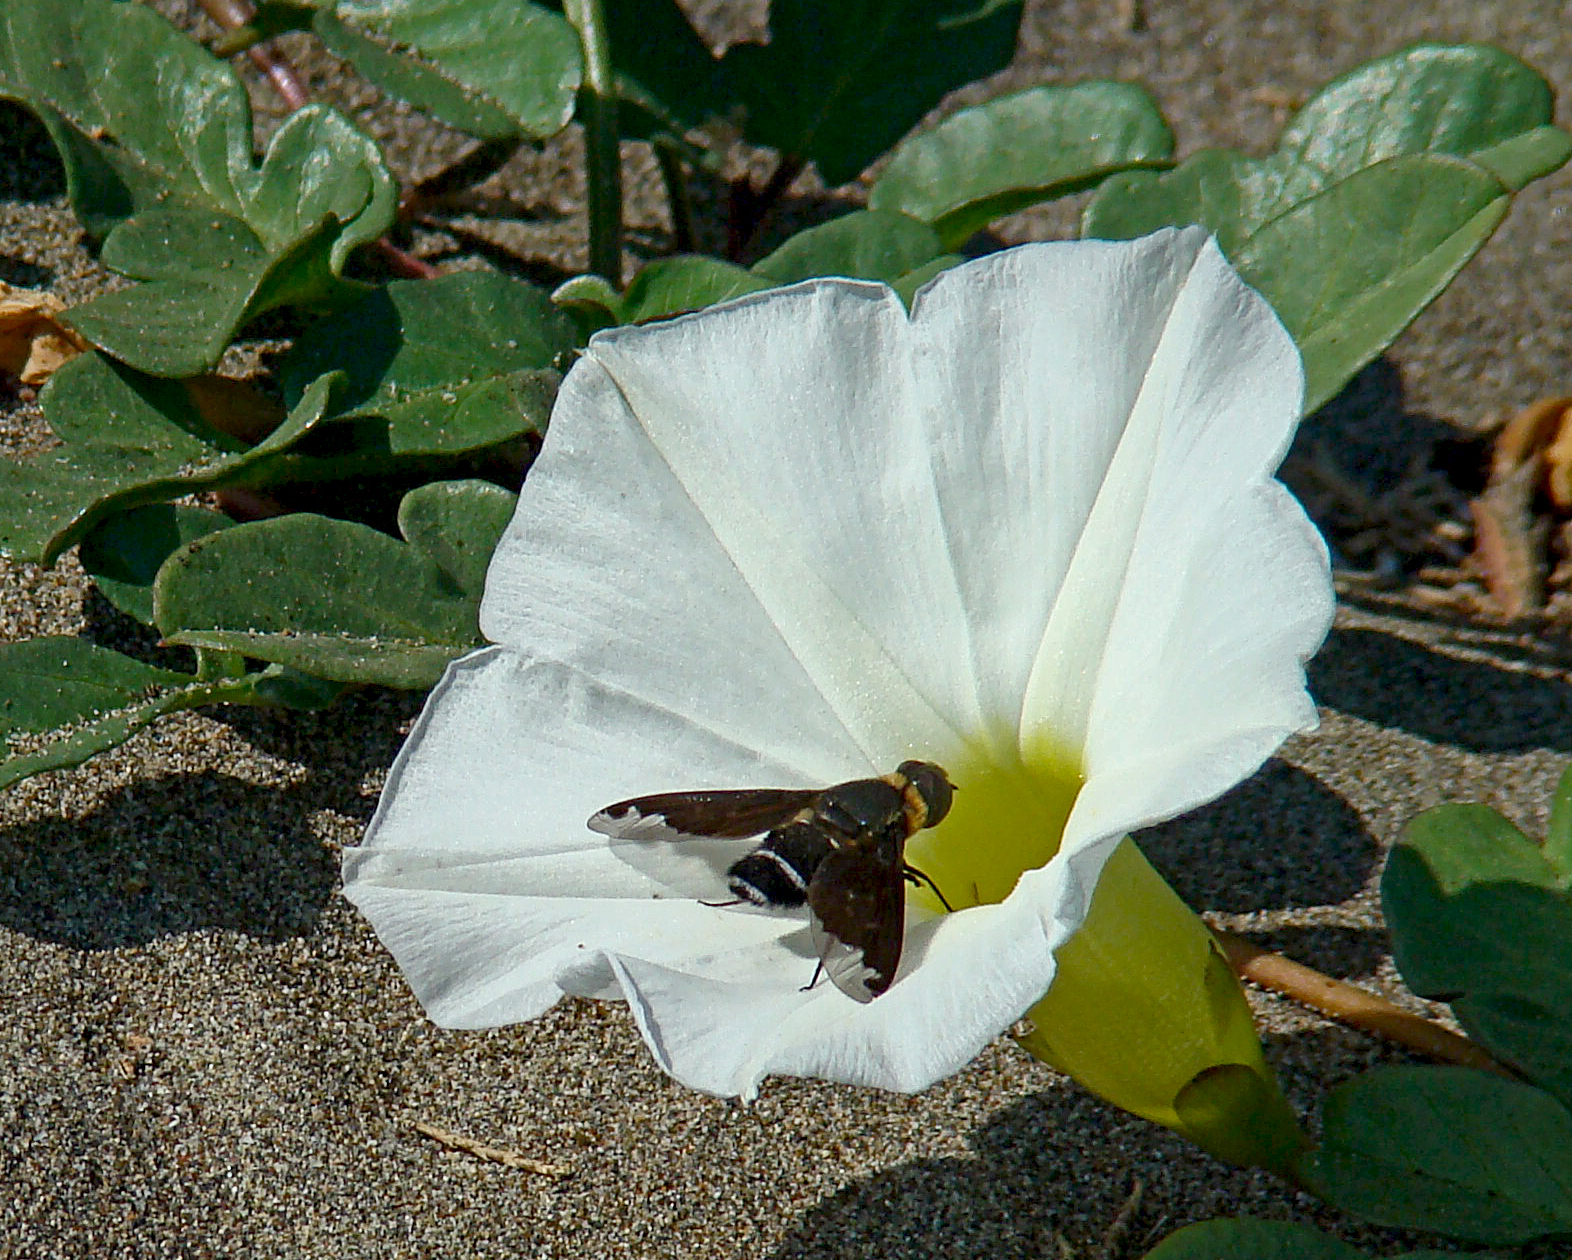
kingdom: Animalia
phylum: Arthropoda
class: Insecta
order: Diptera
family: Bombyliidae
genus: Hemipenthes
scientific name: Hemipenthes velutina
